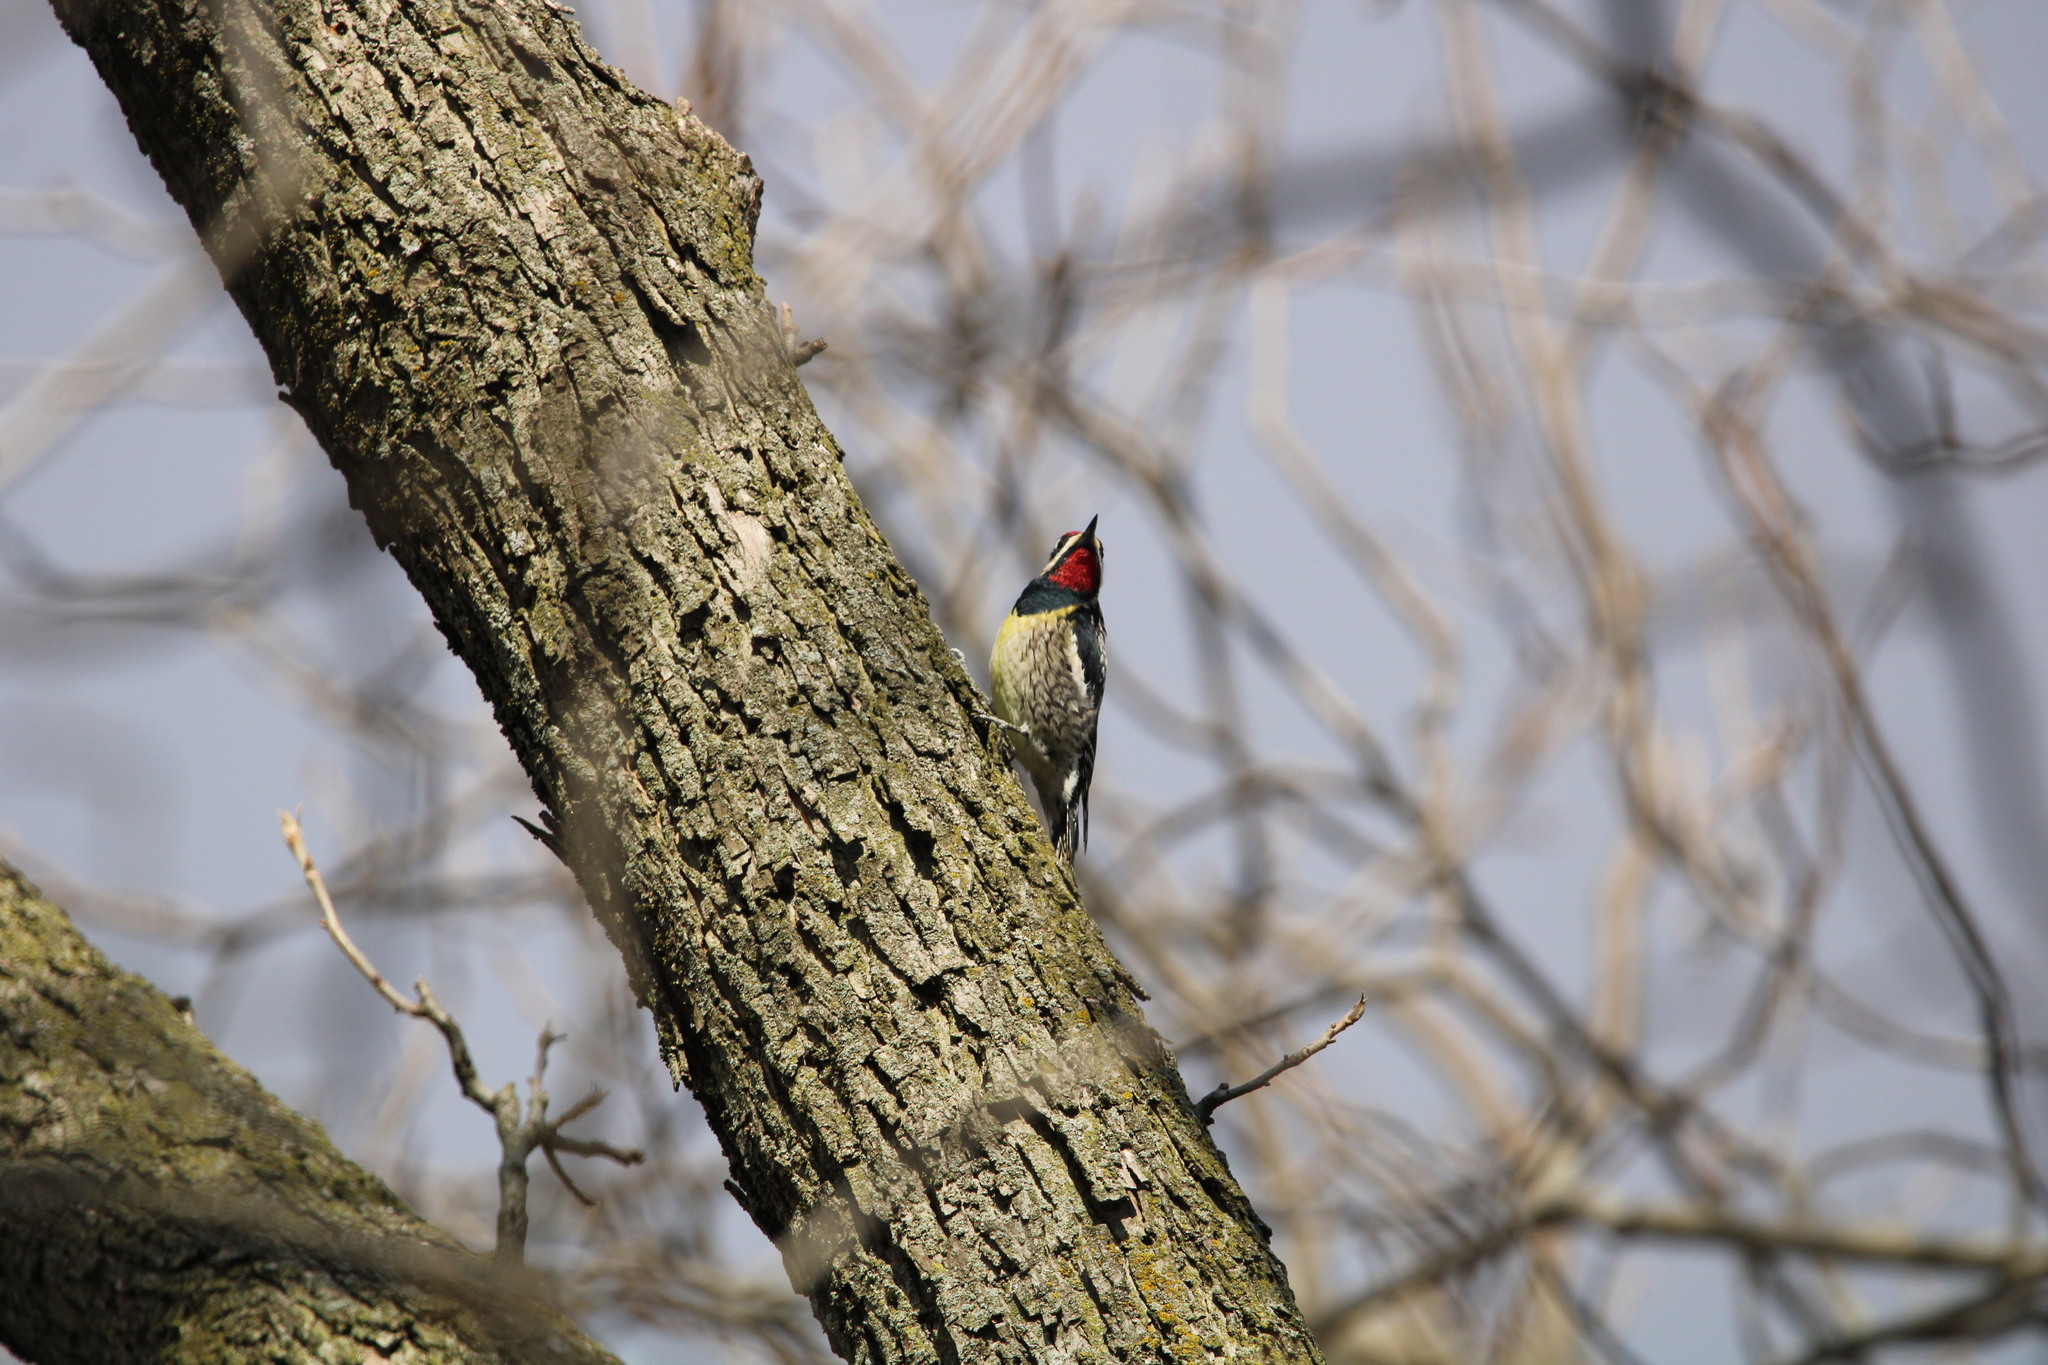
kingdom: Animalia
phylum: Chordata
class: Aves
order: Piciformes
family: Picidae
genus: Sphyrapicus
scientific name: Sphyrapicus varius
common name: Yellow-bellied sapsucker
